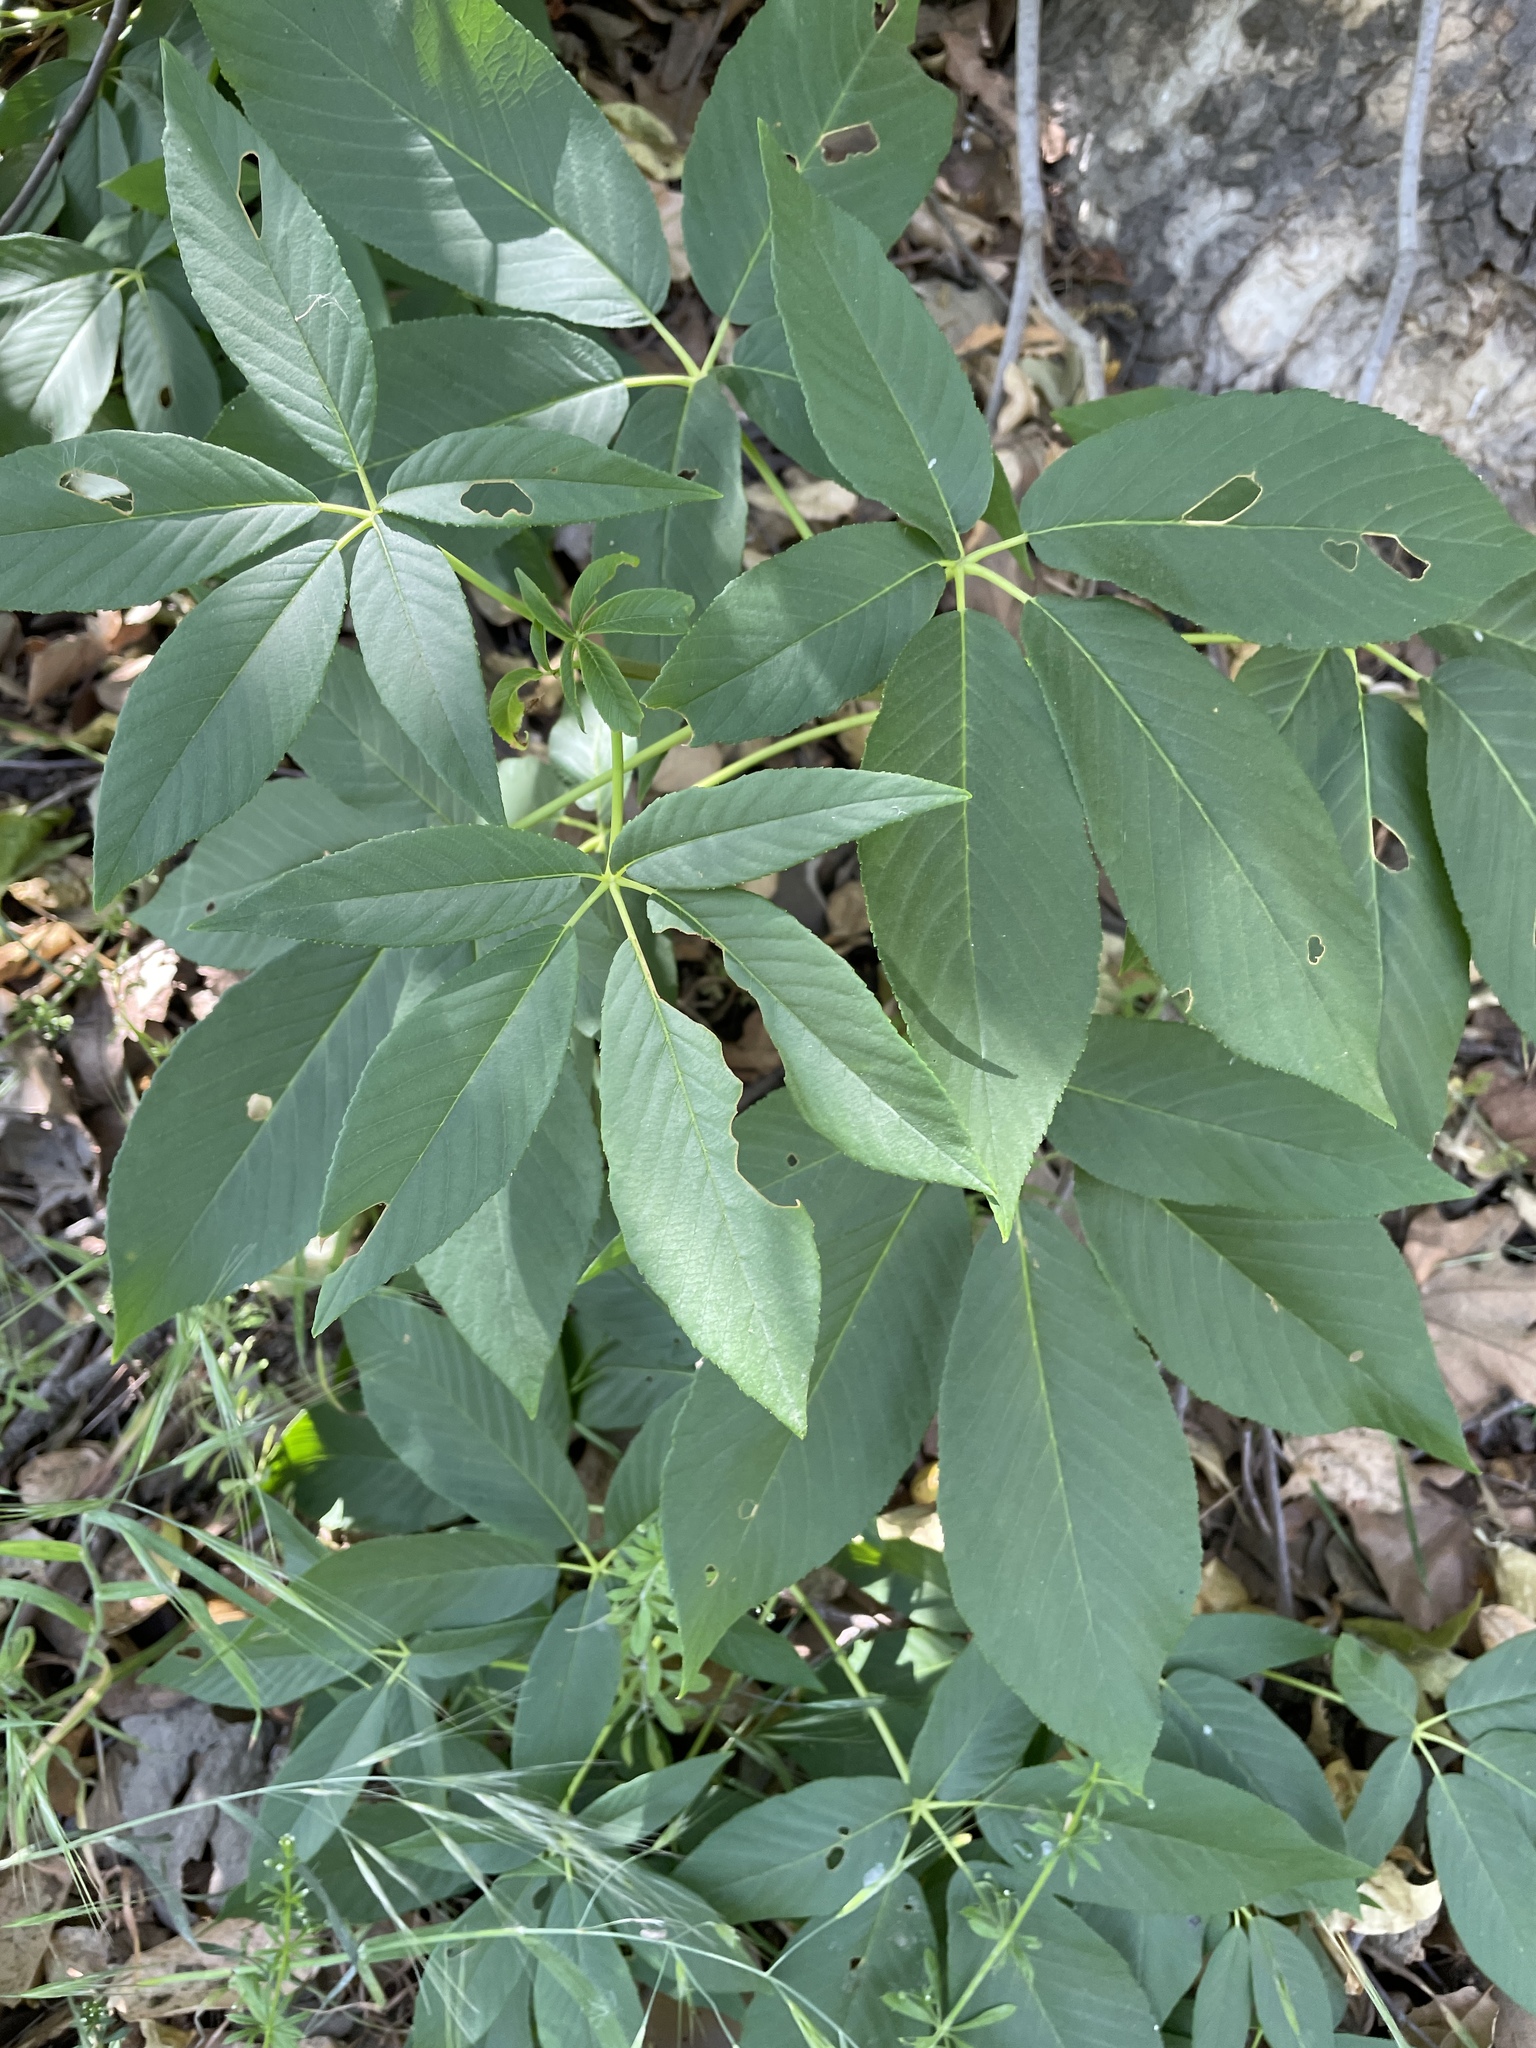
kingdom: Plantae
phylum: Tracheophyta
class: Magnoliopsida
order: Sapindales
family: Sapindaceae
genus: Aesculus
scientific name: Aesculus californica
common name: California buckeye
